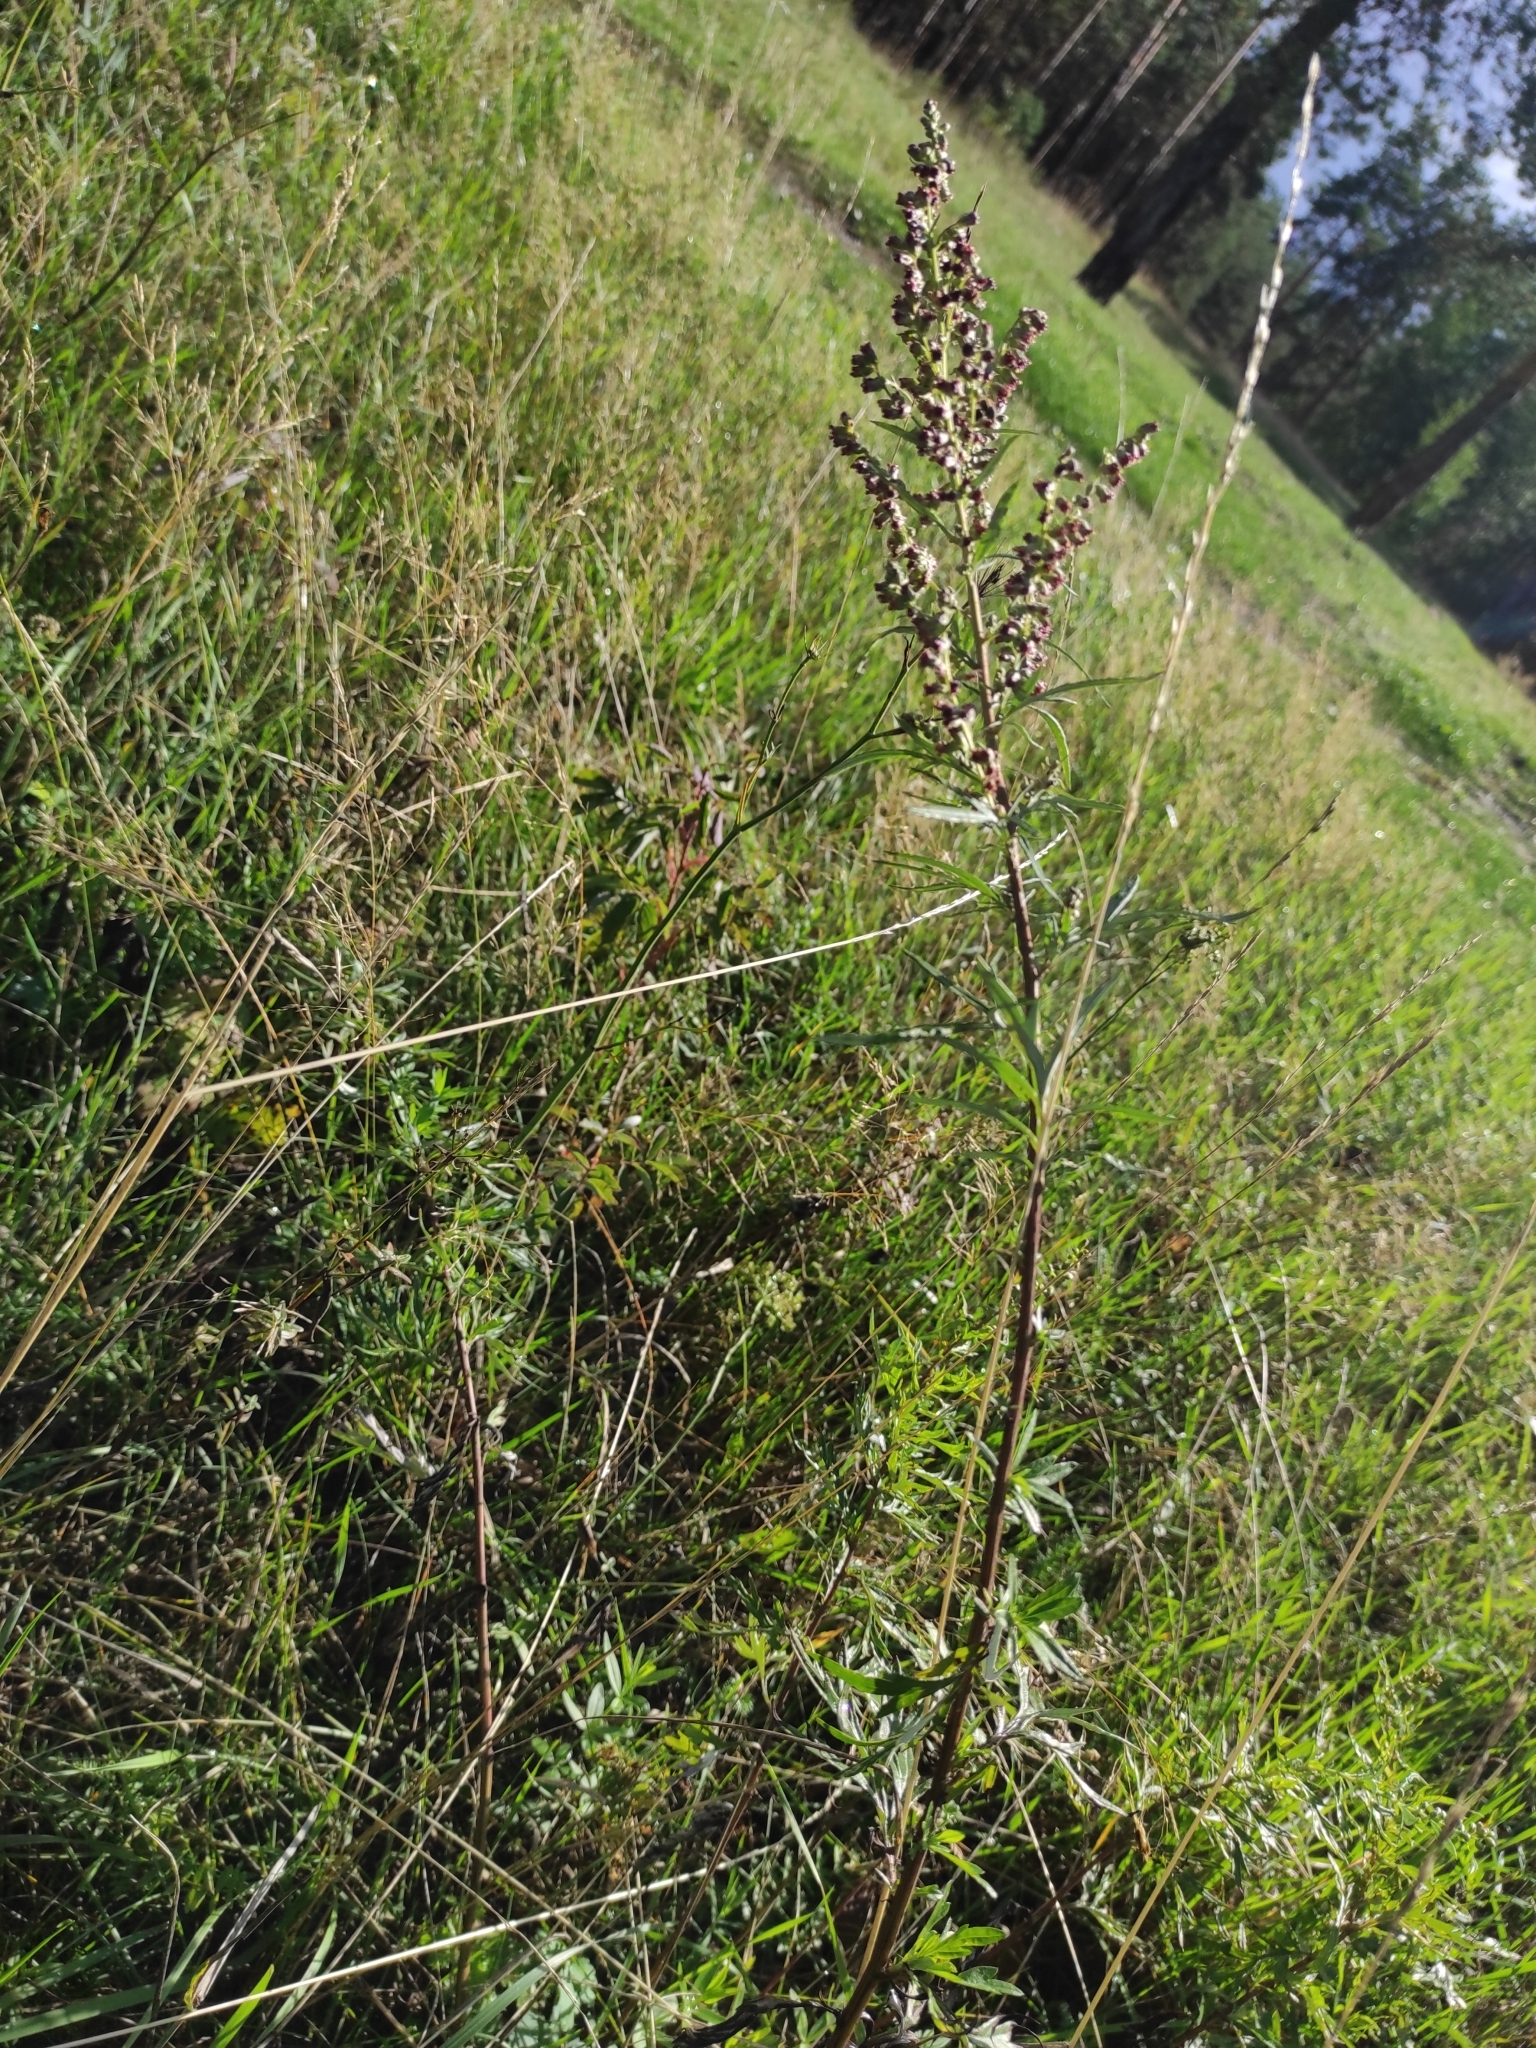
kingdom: Plantae
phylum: Tracheophyta
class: Magnoliopsida
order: Asterales
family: Asteraceae
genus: Artemisia
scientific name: Artemisia vulgaris
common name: Mugwort
